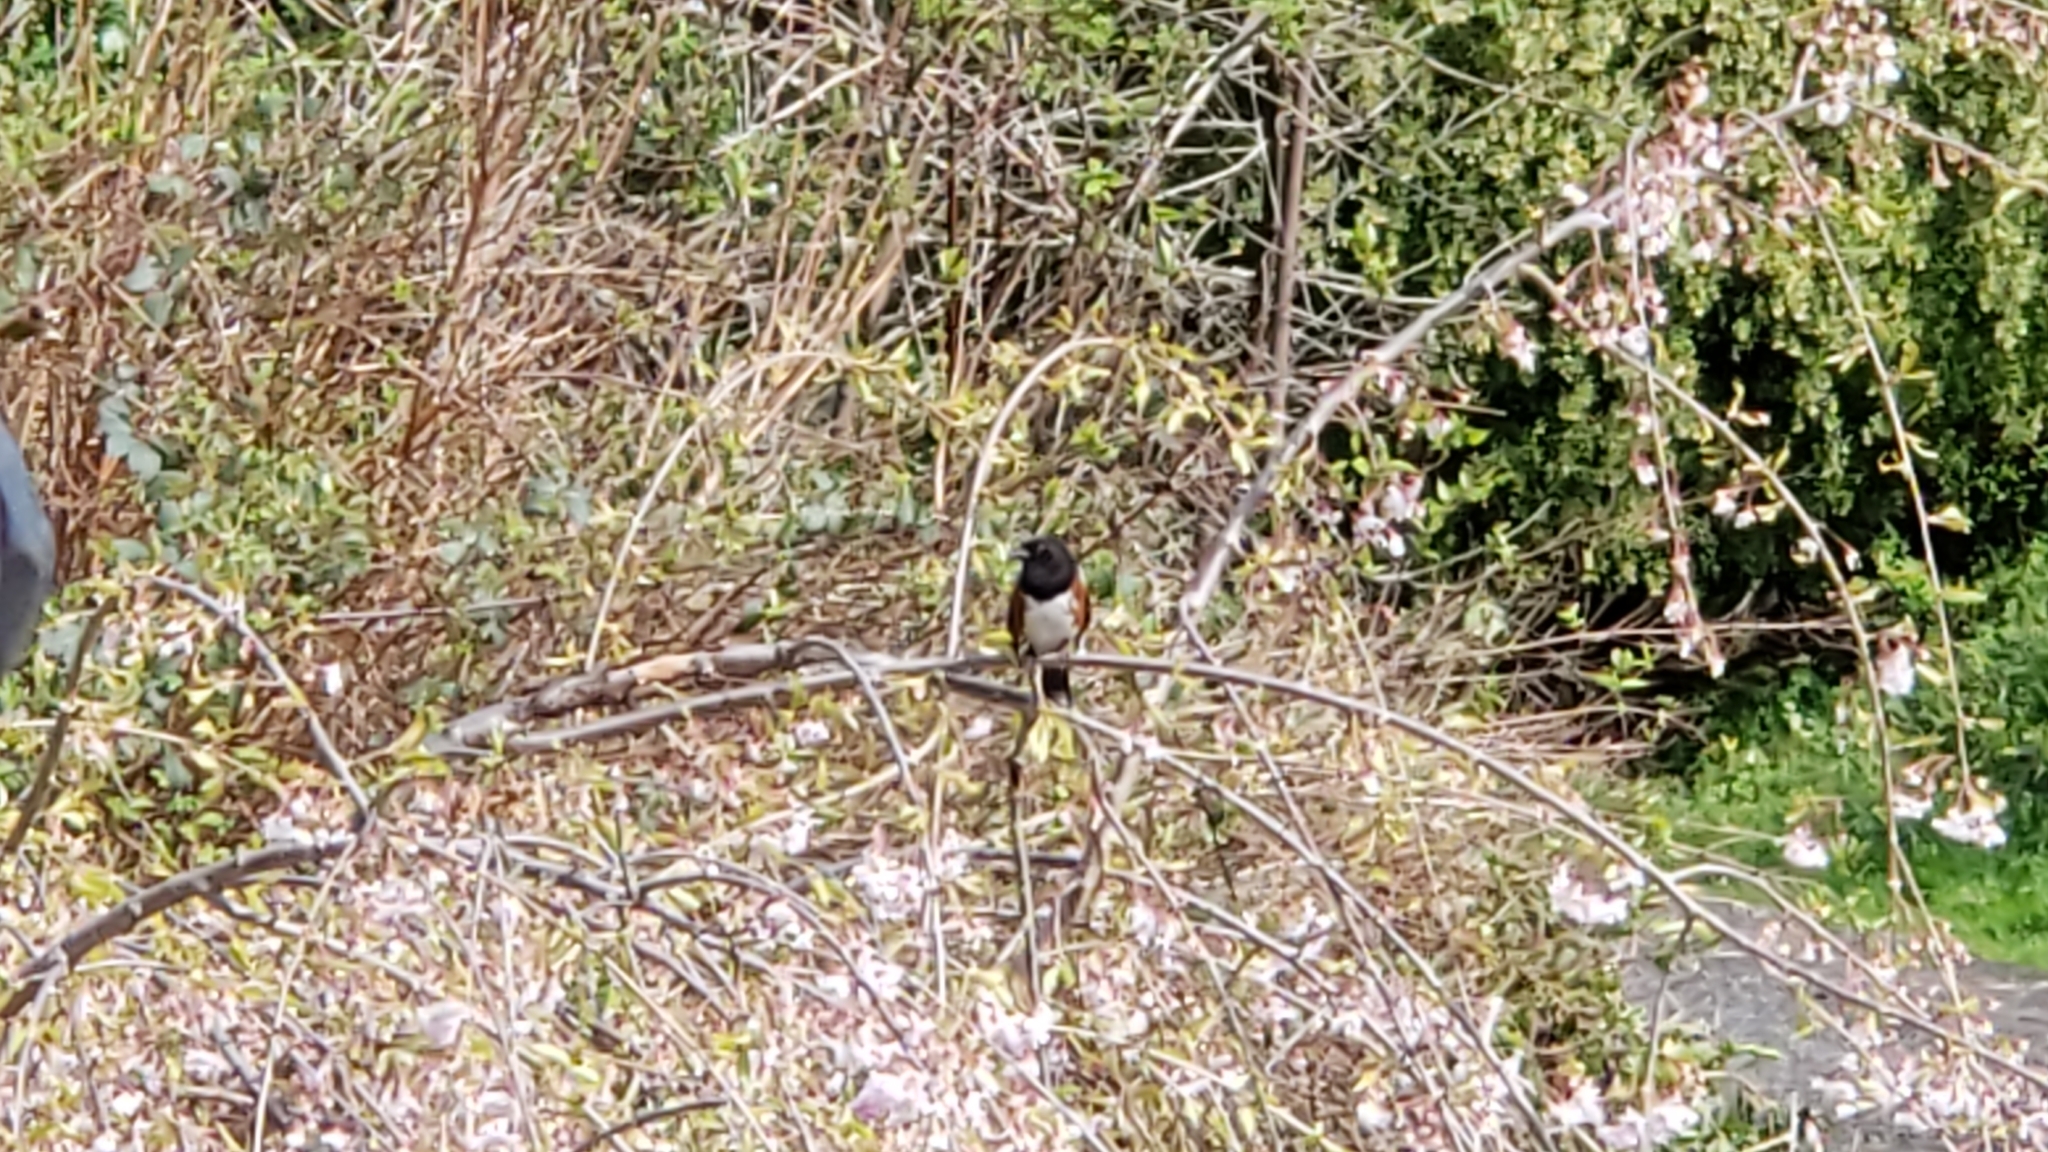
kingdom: Animalia
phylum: Chordata
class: Aves
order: Passeriformes
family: Passerellidae
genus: Pipilo
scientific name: Pipilo maculatus
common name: Spotted towhee
